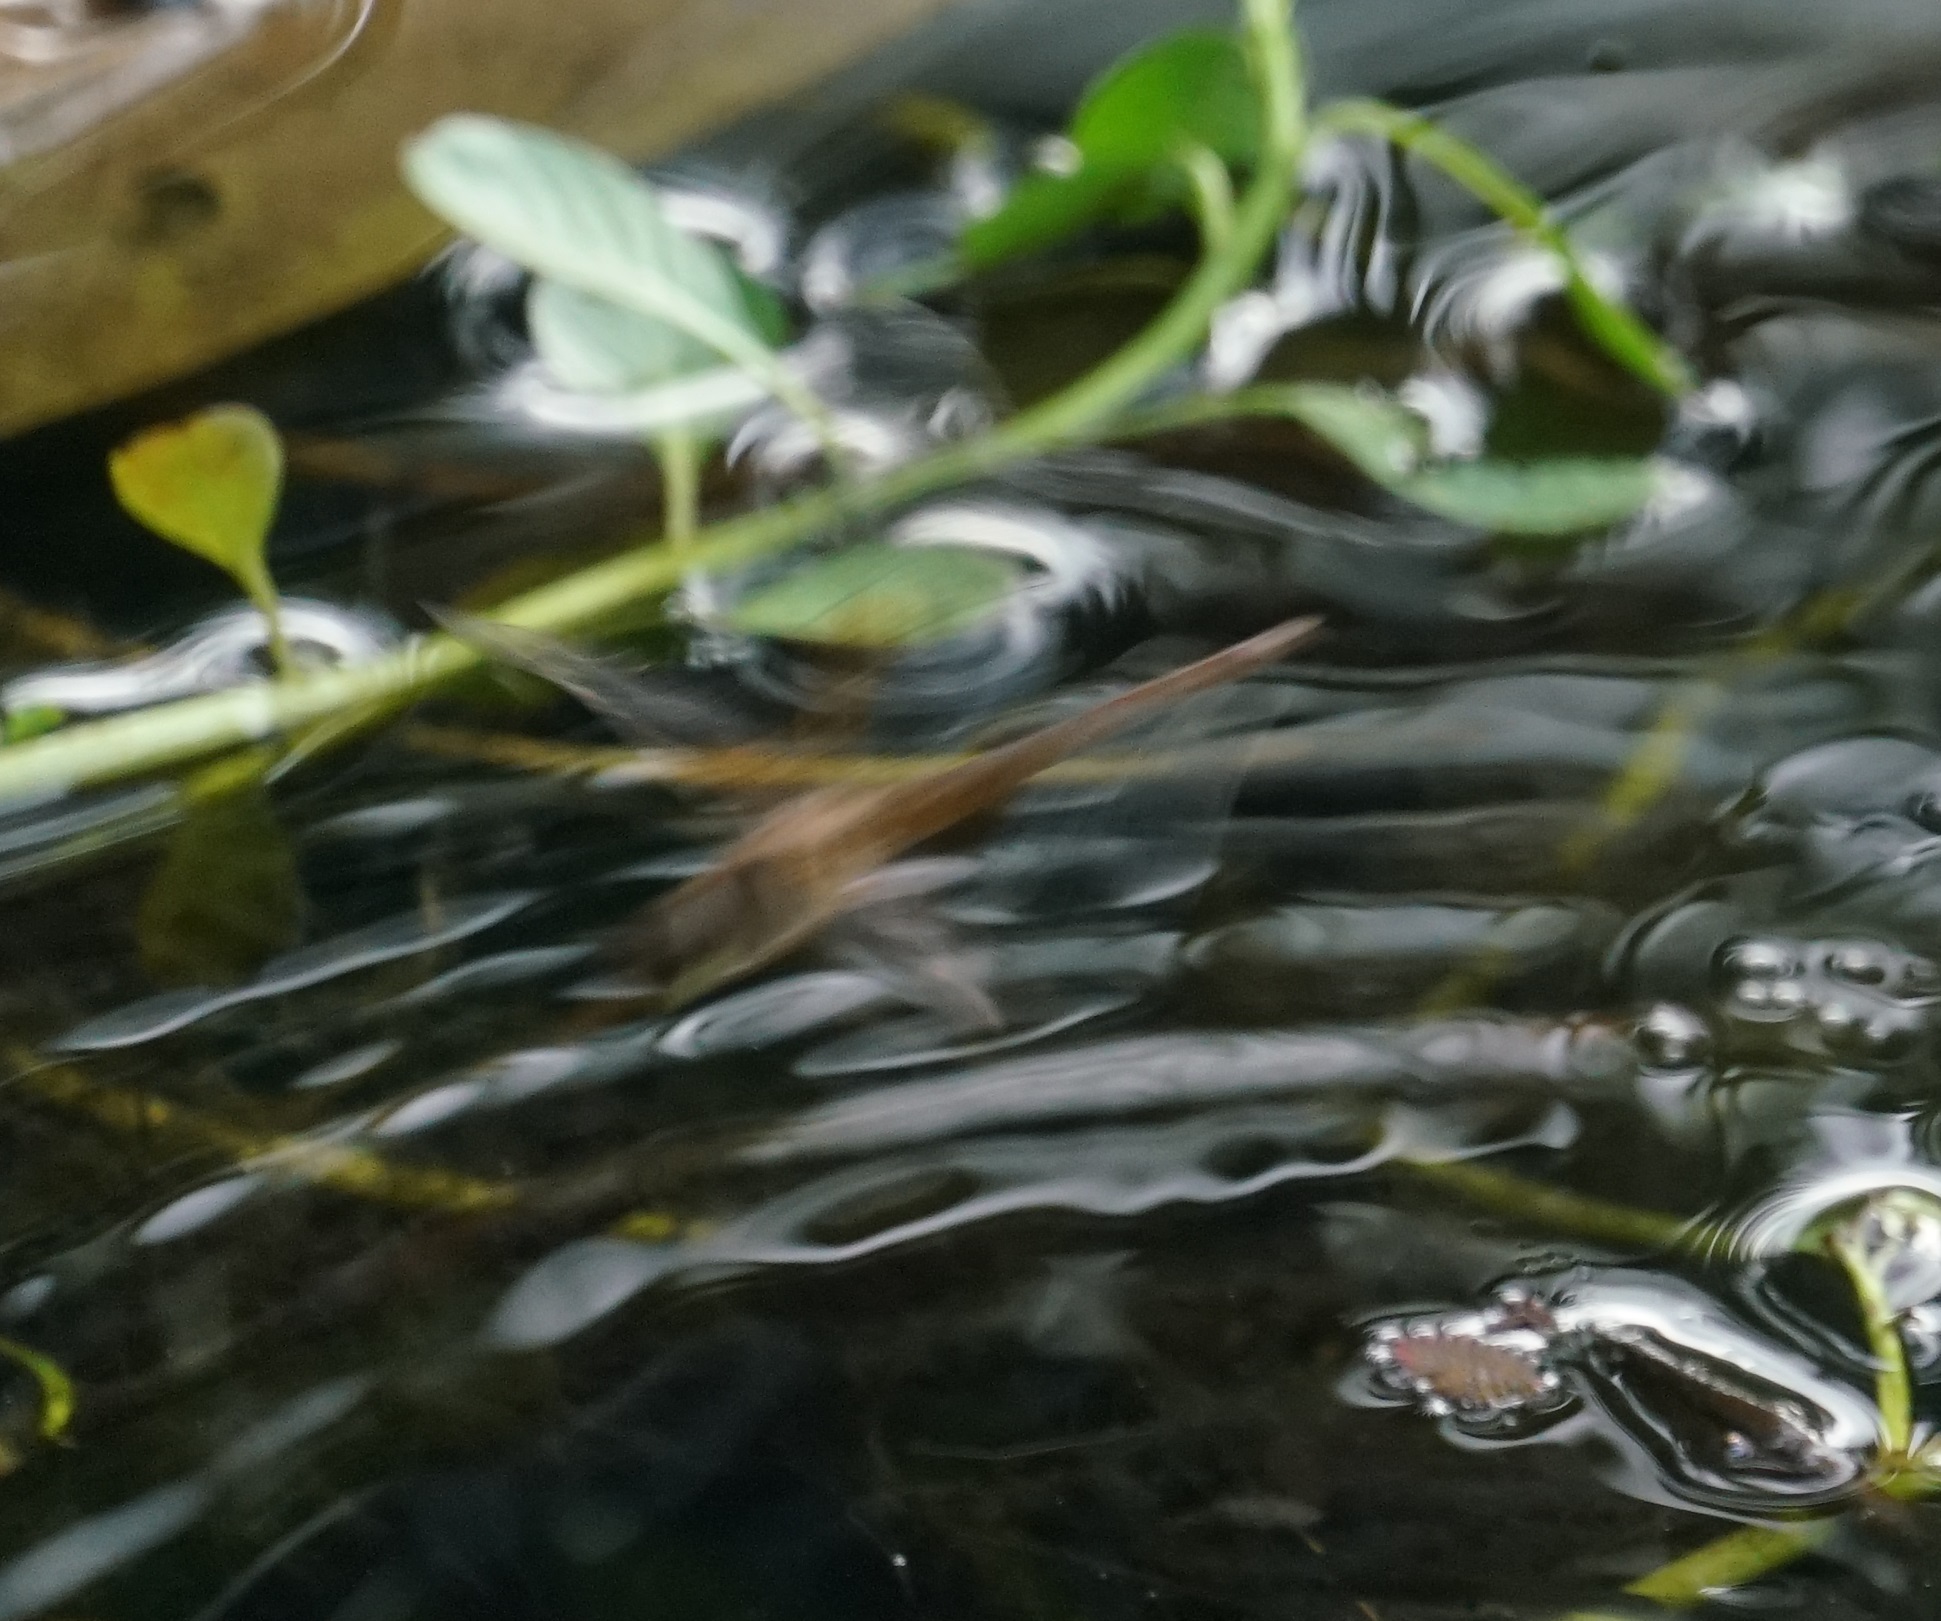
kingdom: Animalia
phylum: Arthropoda
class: Insecta
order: Odonata
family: Libellulidae
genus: Tholymis
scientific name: Tholymis tillarga
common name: Coral-tailed cloud wing
